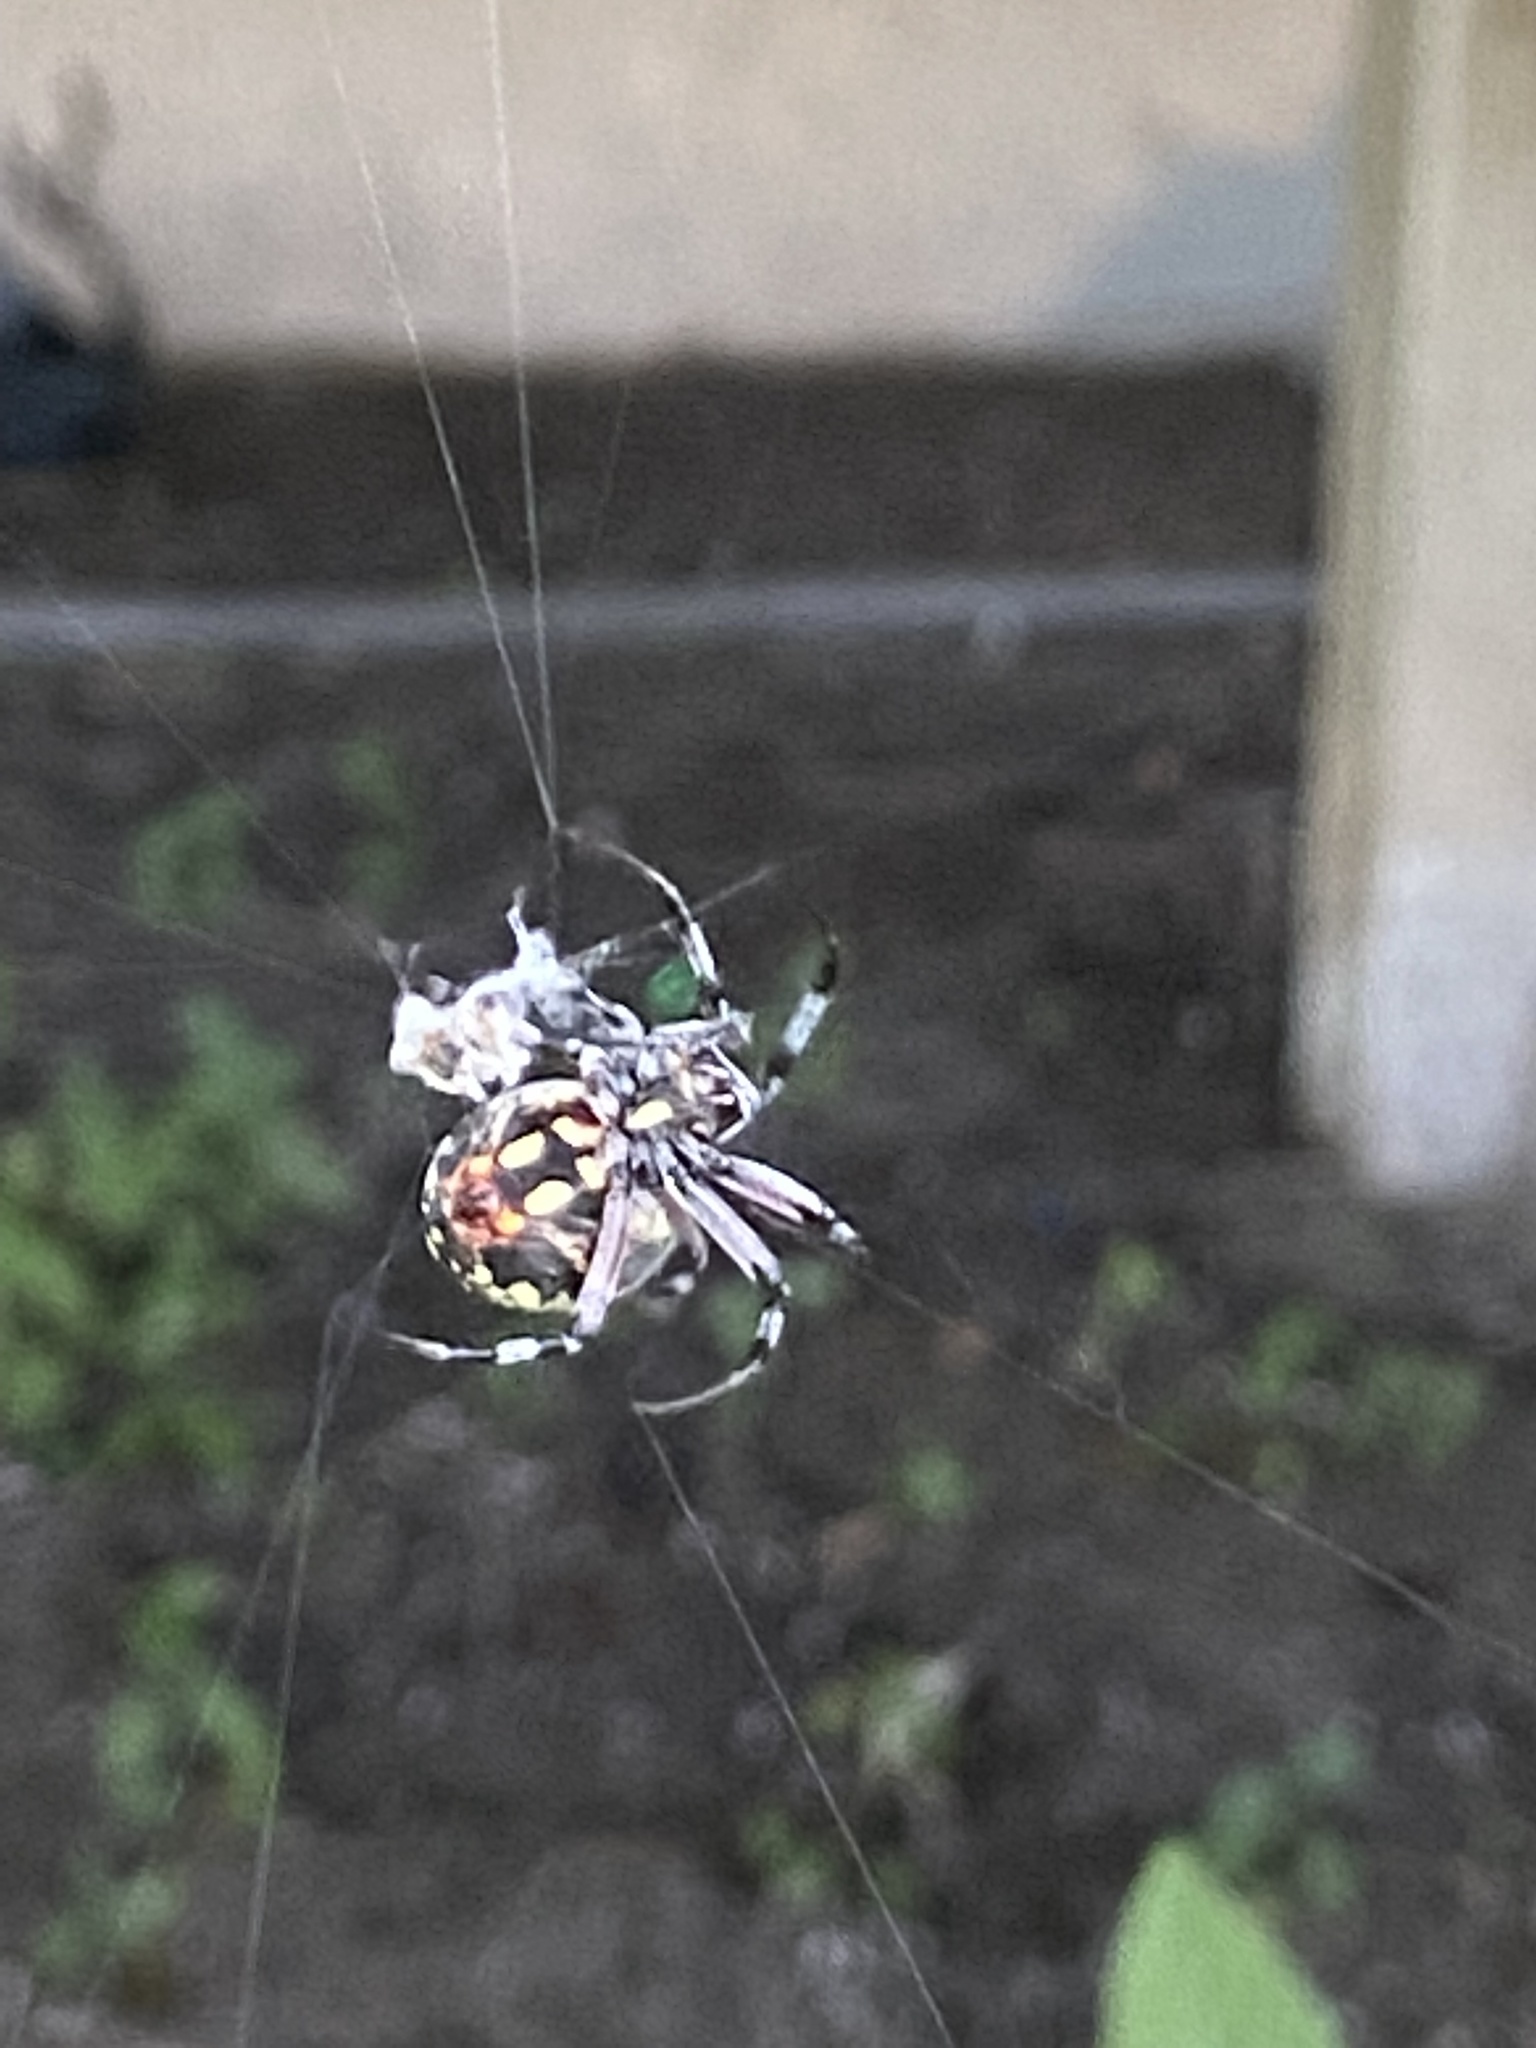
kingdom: Animalia
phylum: Arthropoda
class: Arachnida
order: Araneae
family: Araneidae
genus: Neoscona
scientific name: Neoscona oaxacensis
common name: Orb weavers
